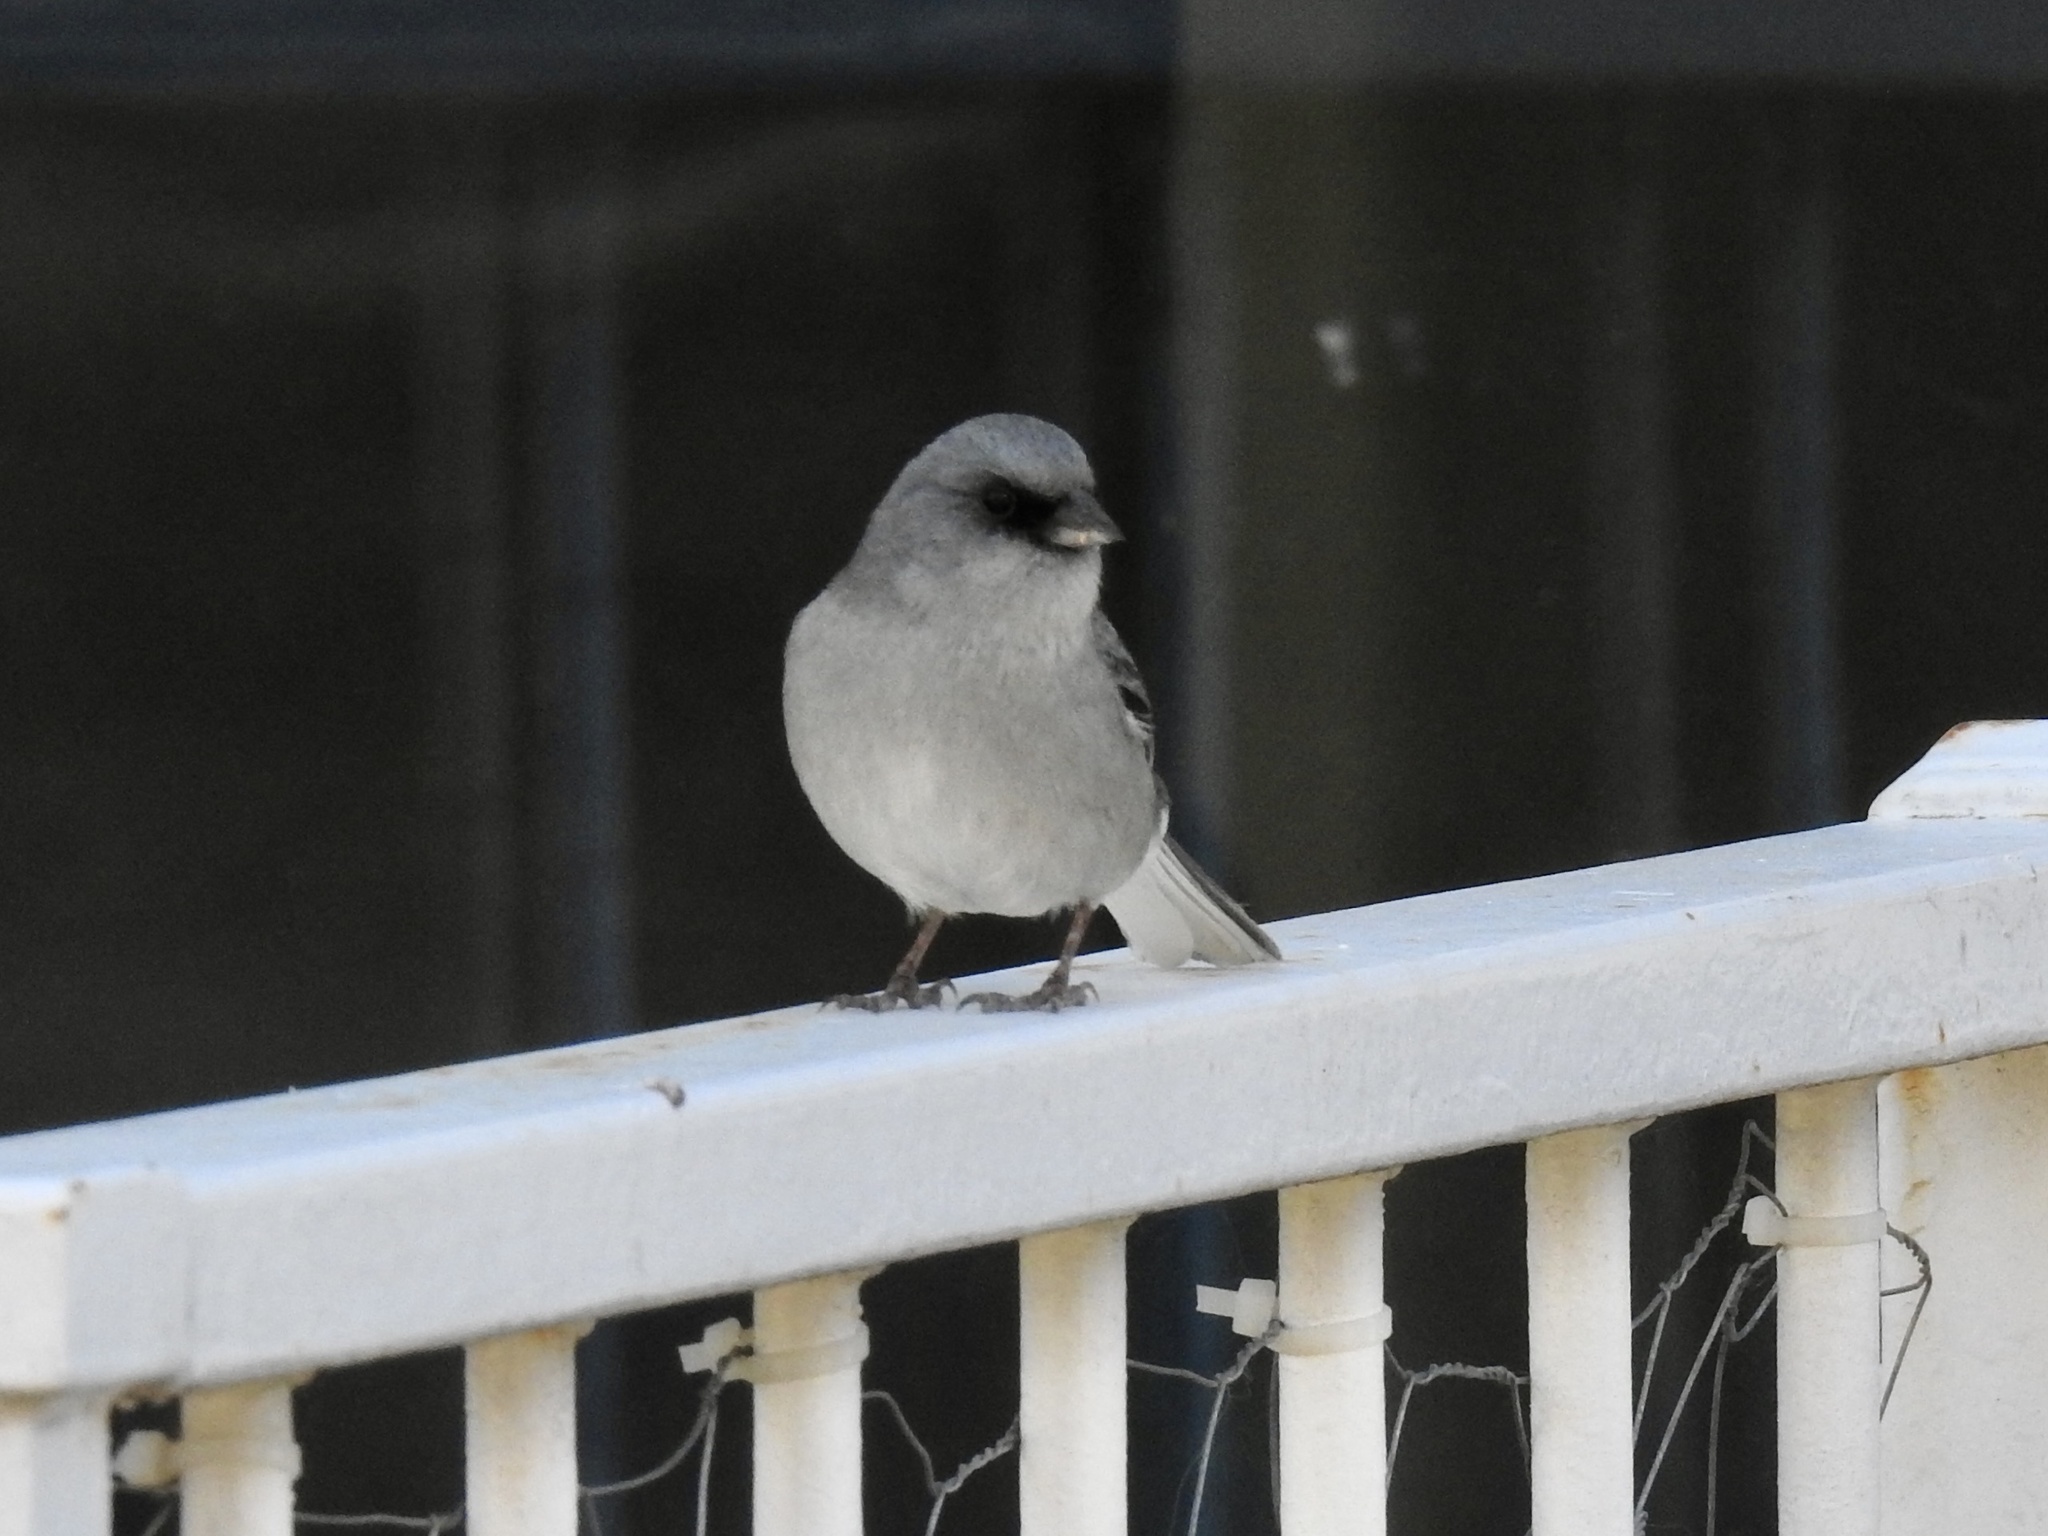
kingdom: Animalia
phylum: Chordata
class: Aves
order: Passeriformes
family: Passerellidae
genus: Junco
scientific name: Junco hyemalis
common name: Dark-eyed junco
